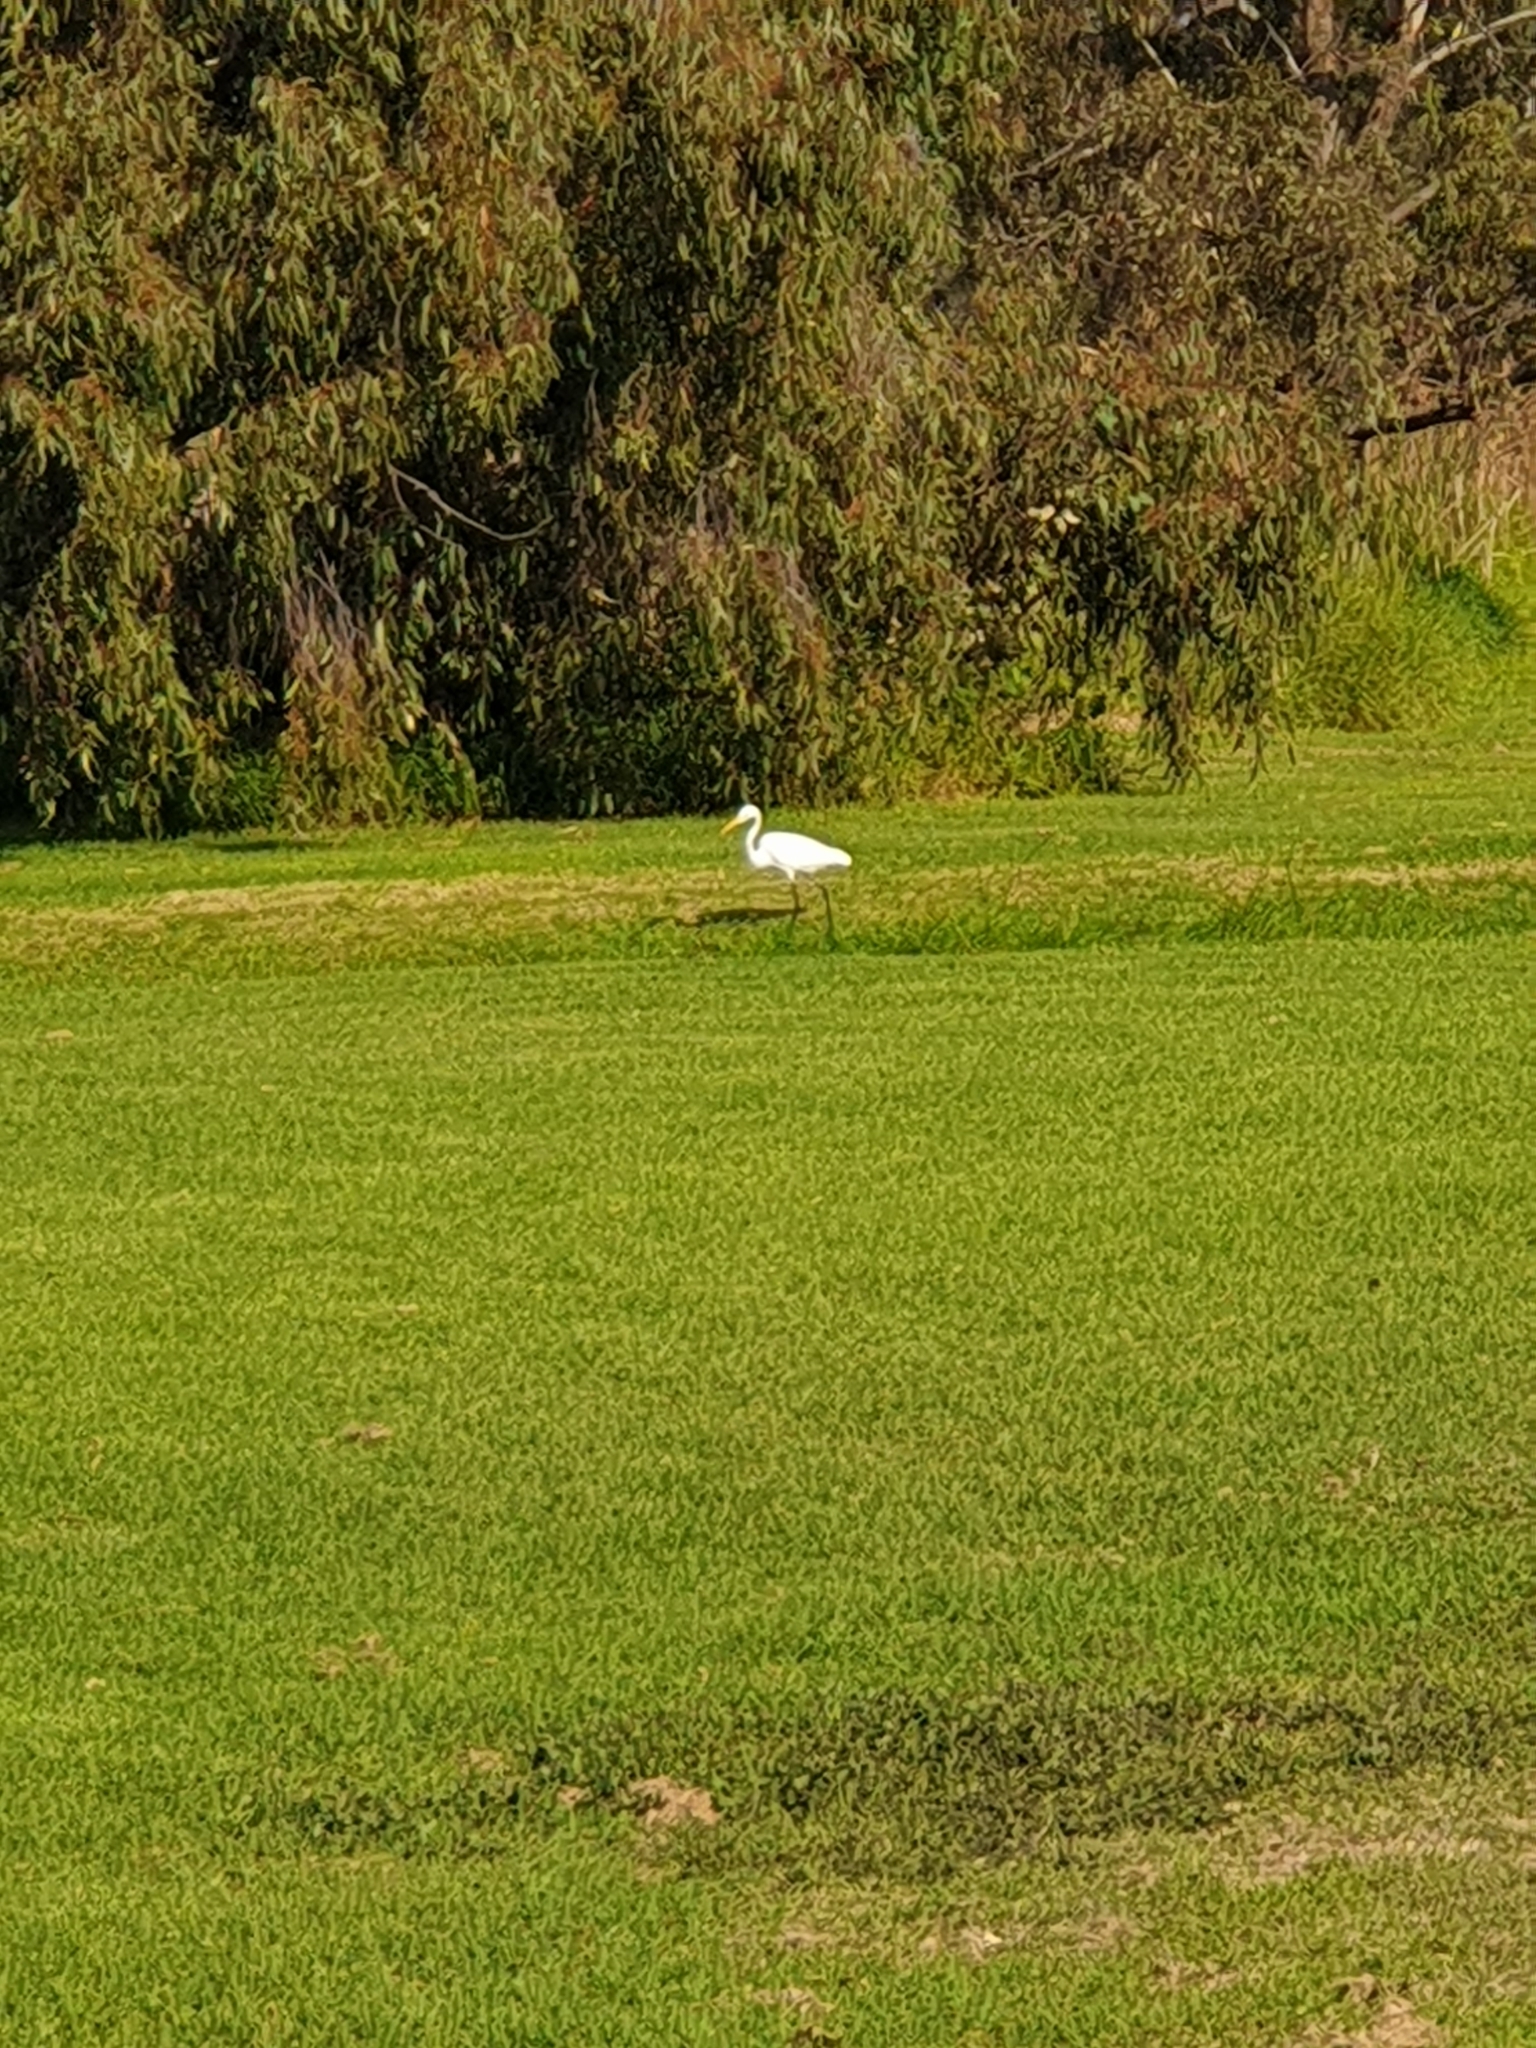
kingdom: Animalia
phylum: Chordata
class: Aves
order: Pelecaniformes
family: Ardeidae
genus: Ardea
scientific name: Ardea modesta
